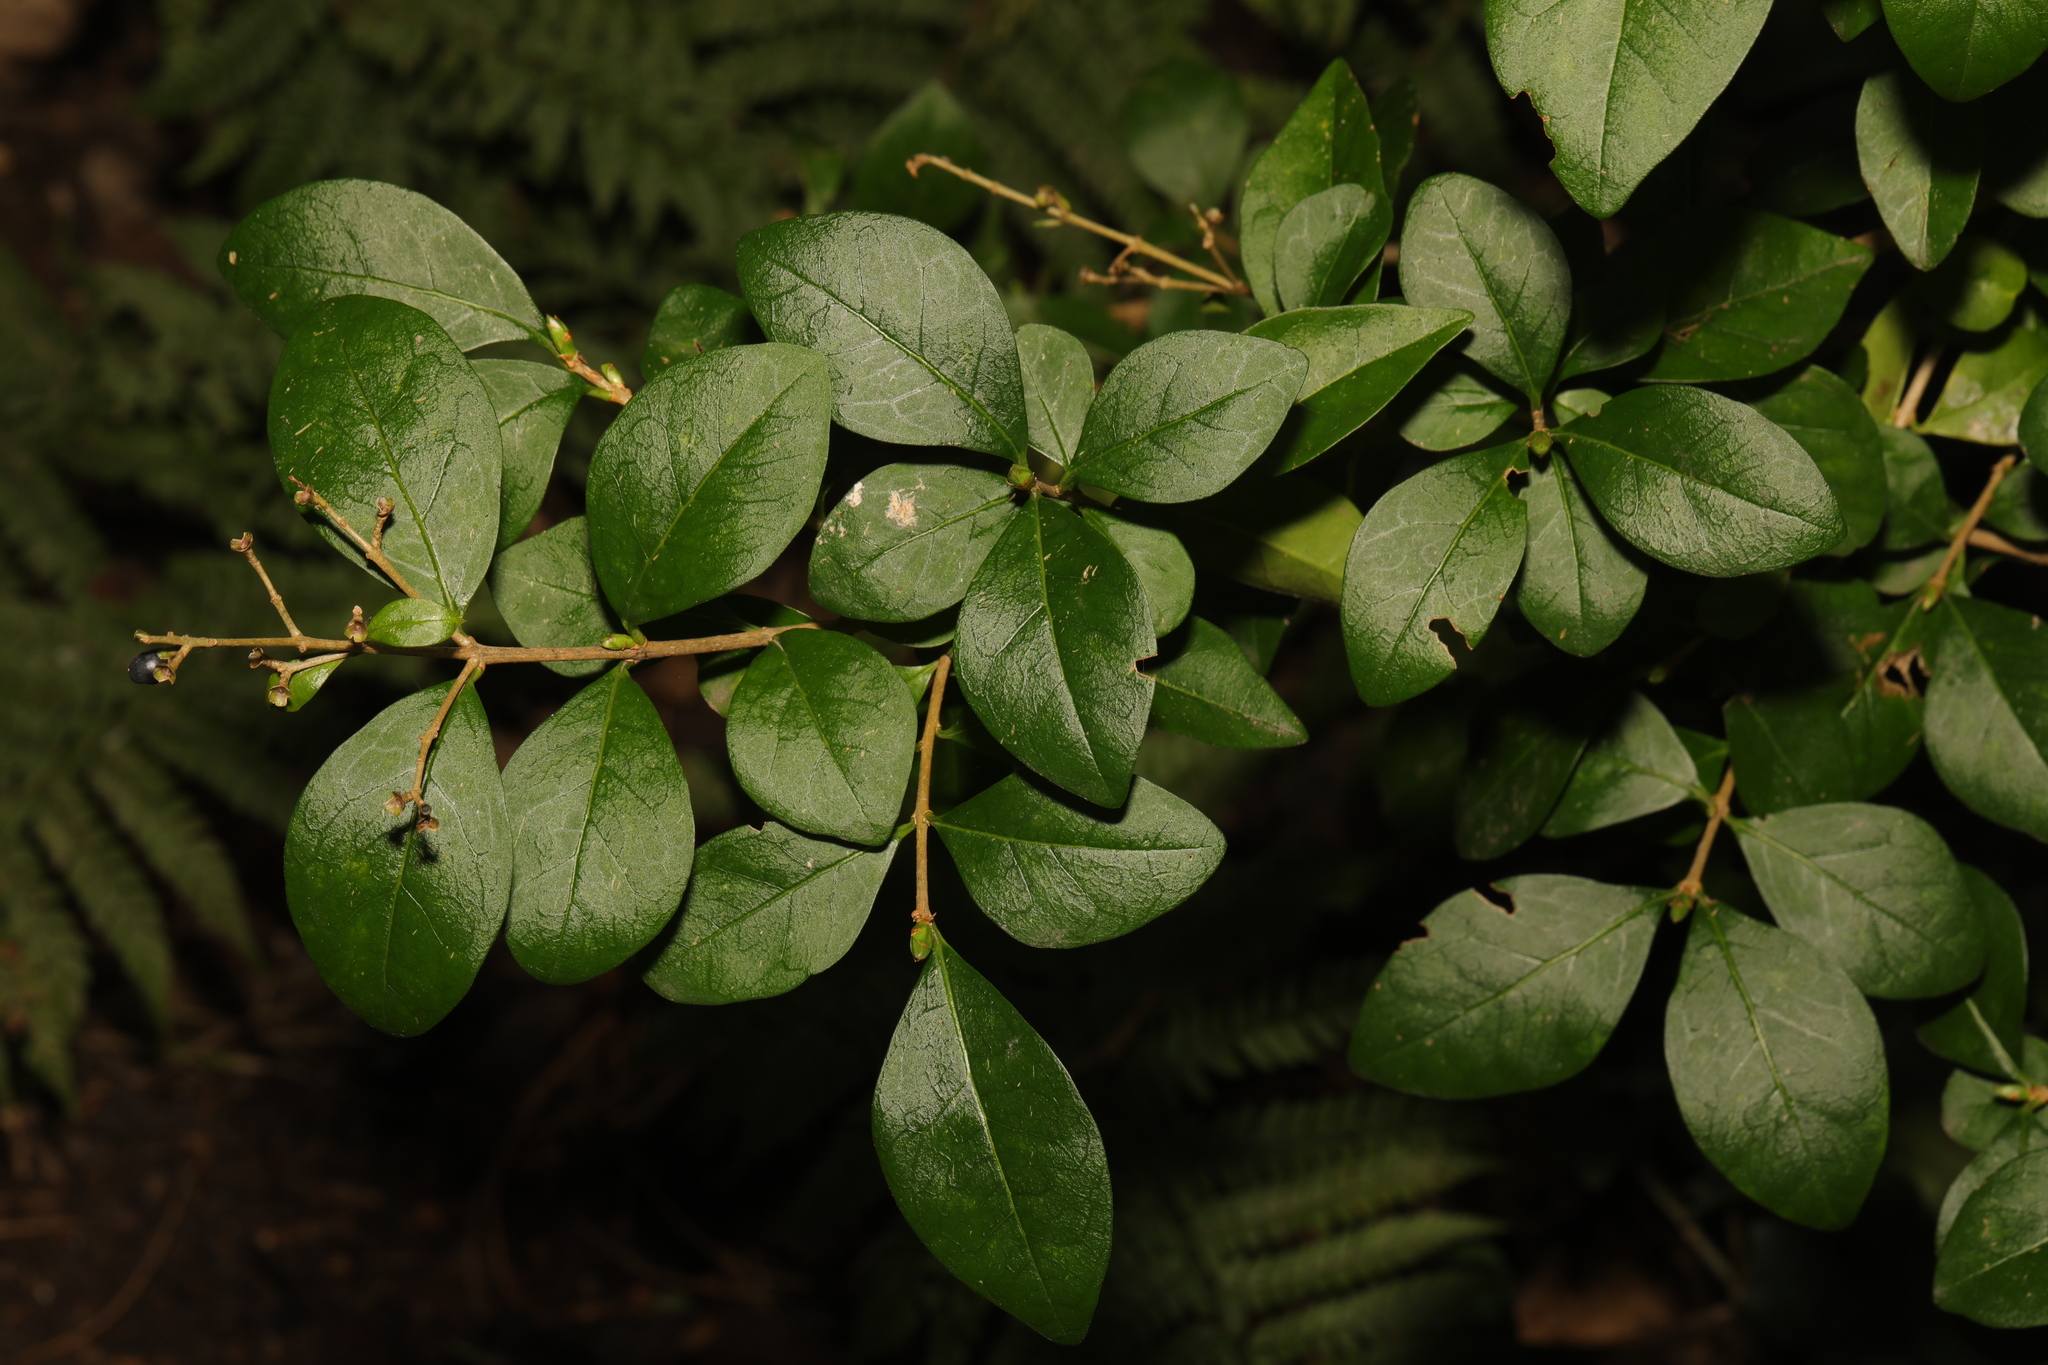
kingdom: Plantae
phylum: Tracheophyta
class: Magnoliopsida
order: Lamiales
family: Oleaceae
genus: Ligustrum
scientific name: Ligustrum ovalifolium
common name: California privet
